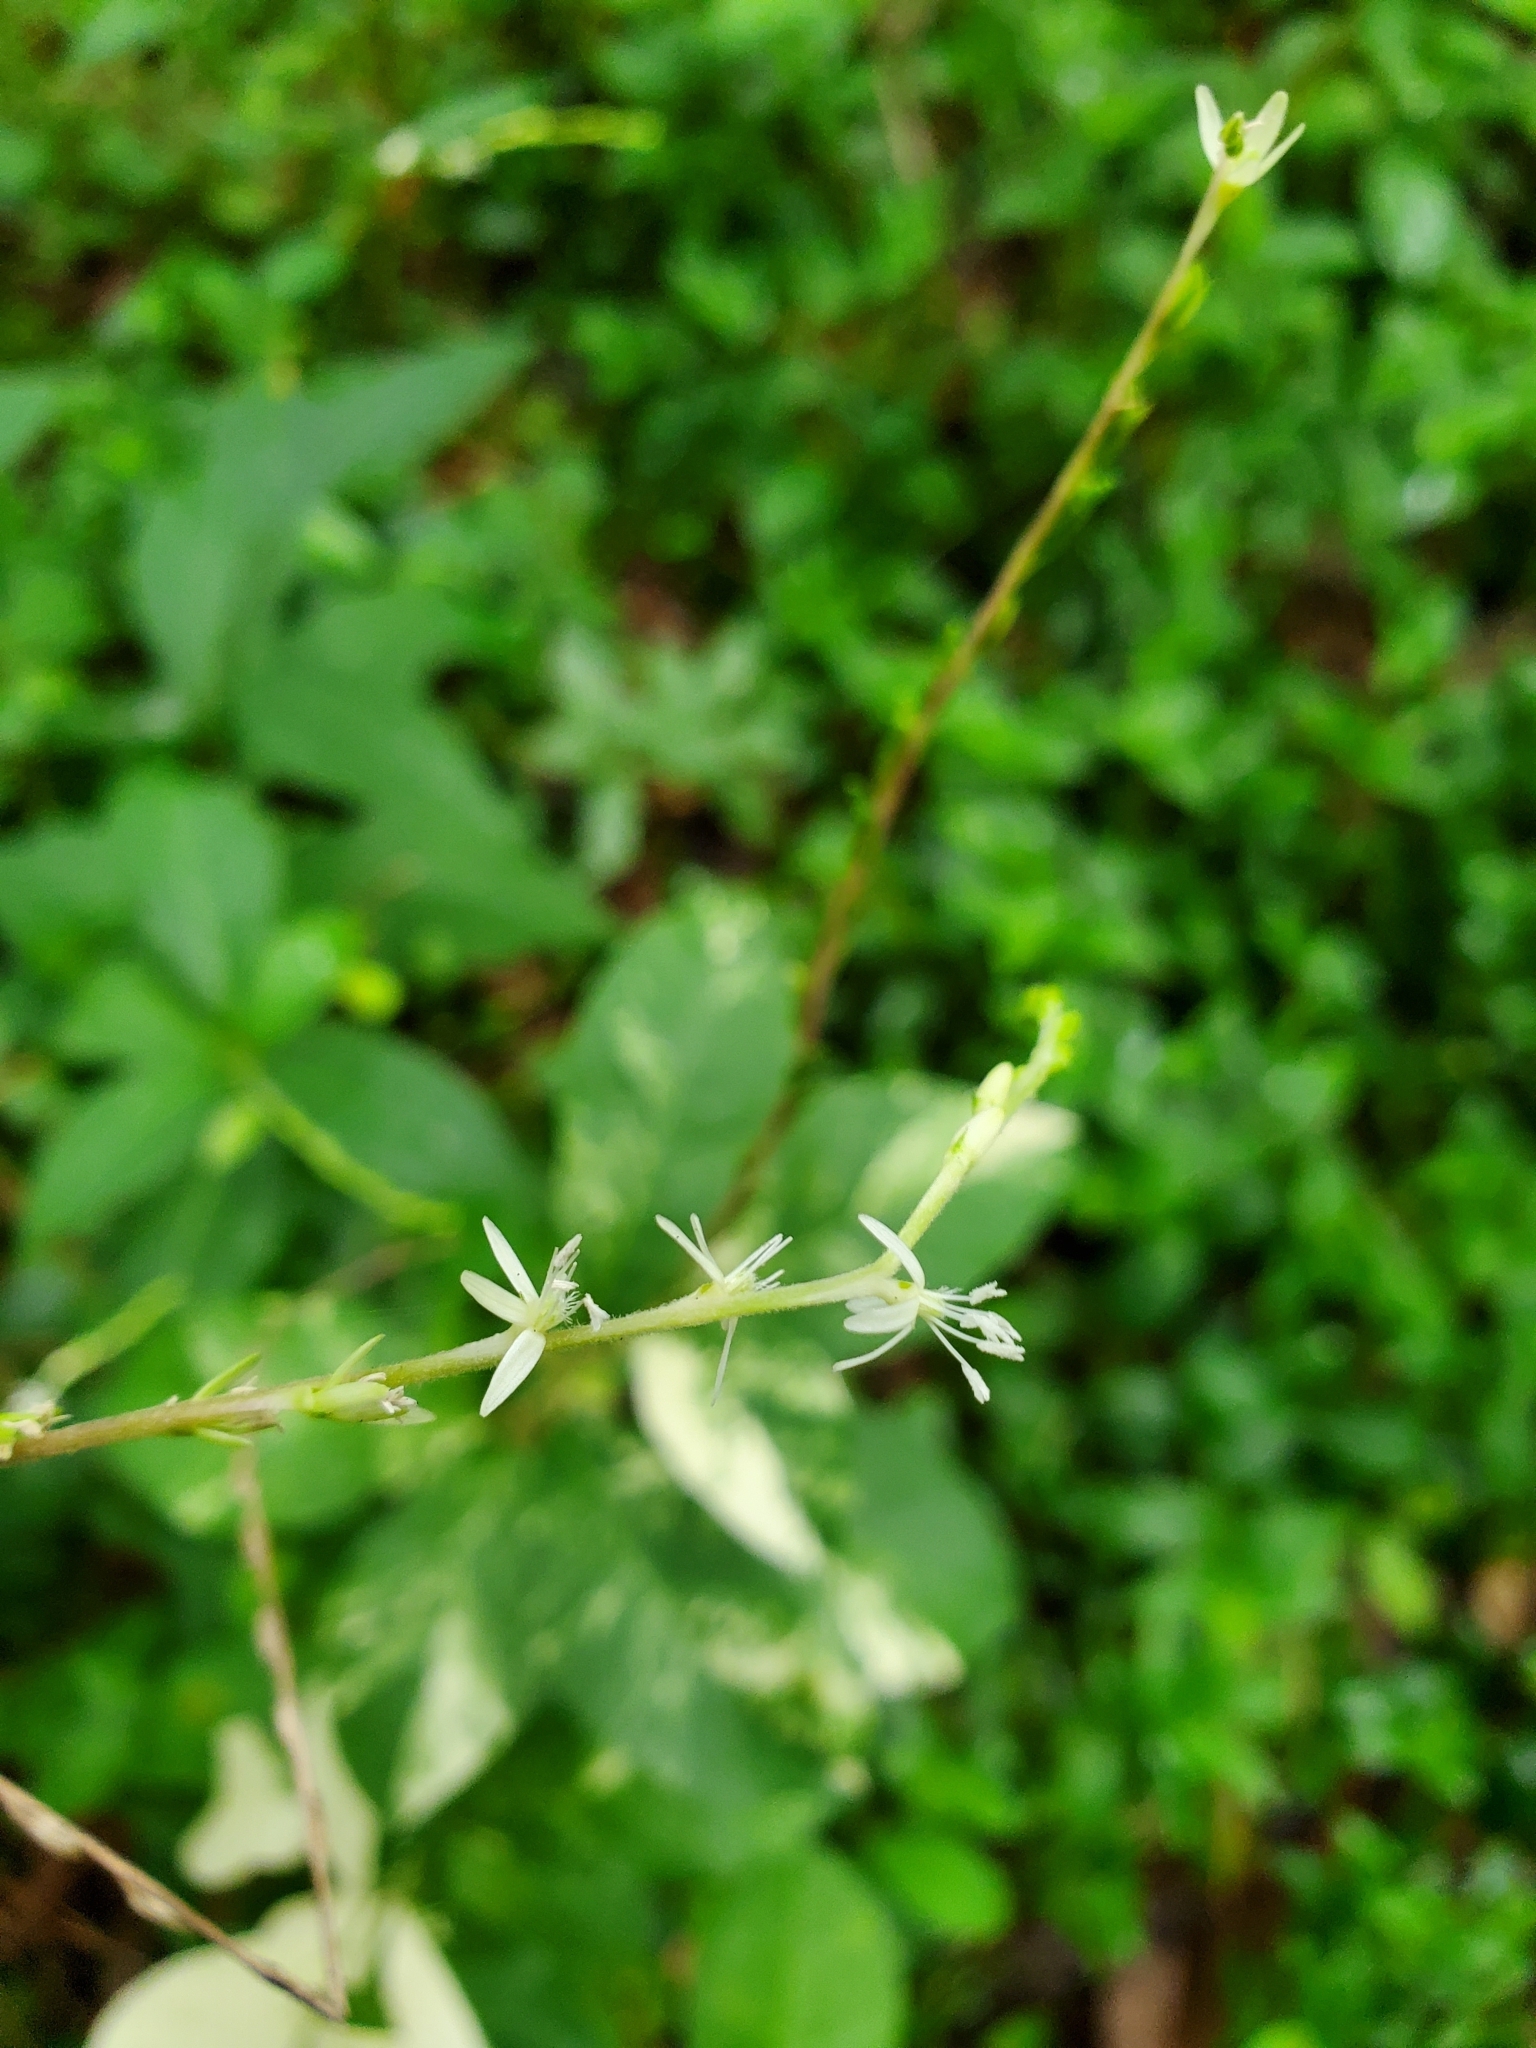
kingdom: Plantae
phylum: Tracheophyta
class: Magnoliopsida
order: Caryophyllales
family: Phytolaccaceae
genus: Petiveria
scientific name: Petiveria alliacea
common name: Garlicweed
